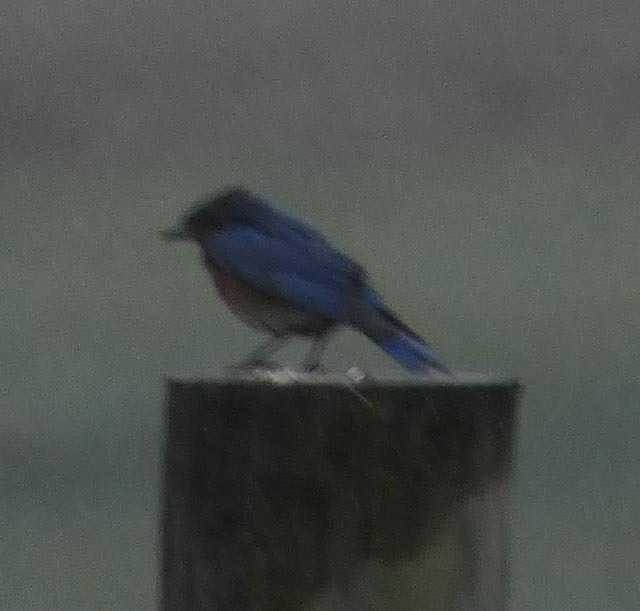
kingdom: Animalia
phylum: Chordata
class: Aves
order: Passeriformes
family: Turdidae
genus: Sialia
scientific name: Sialia sialis
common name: Eastern bluebird
